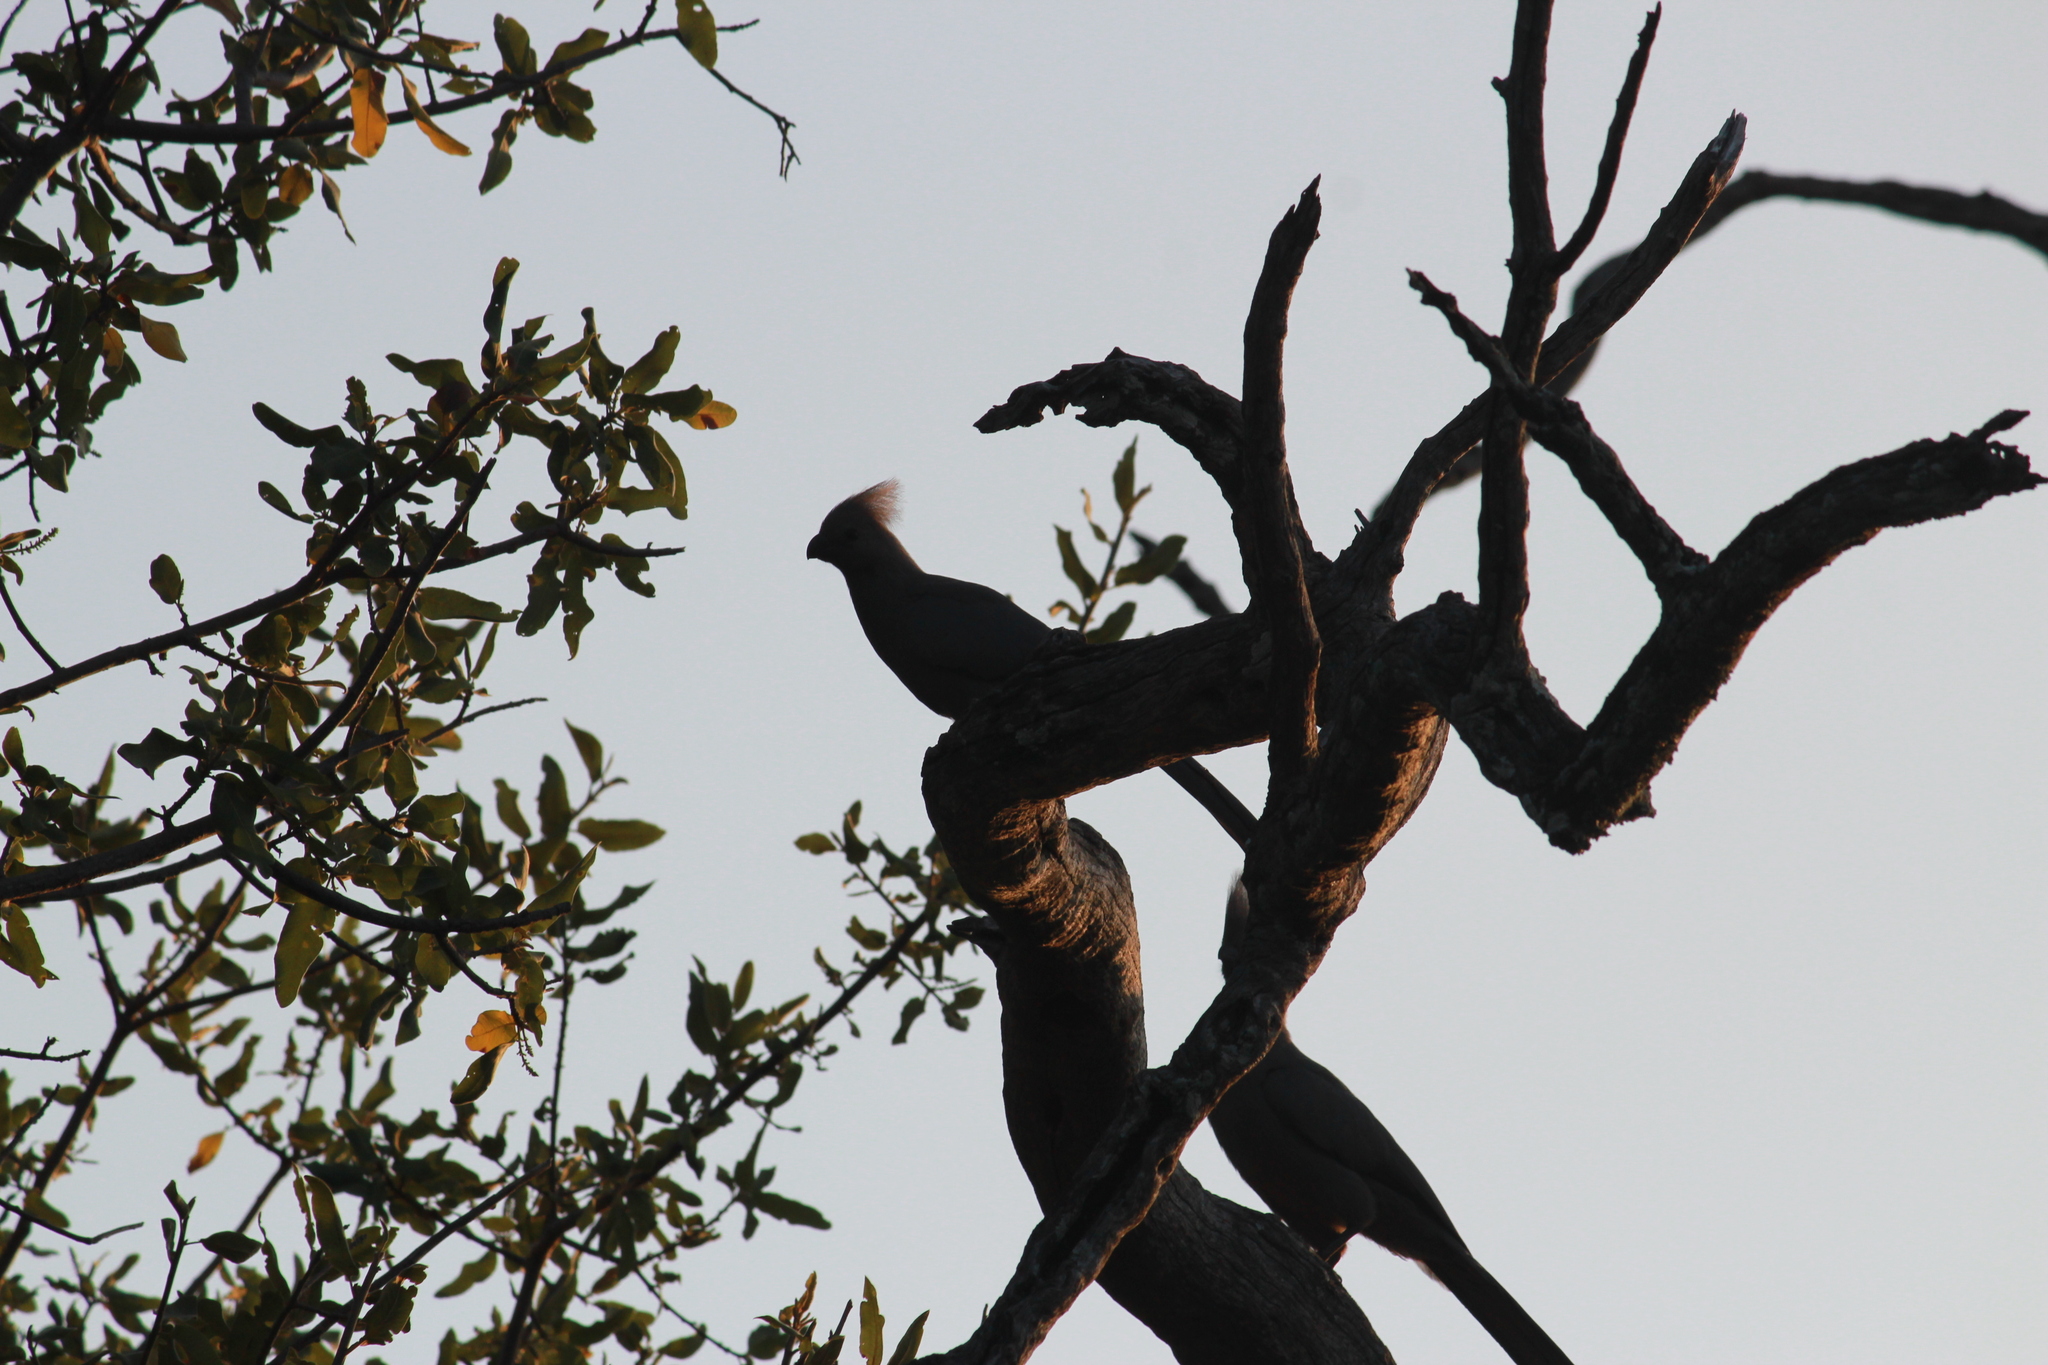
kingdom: Animalia
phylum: Chordata
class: Aves
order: Musophagiformes
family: Musophagidae
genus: Corythaixoides
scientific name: Corythaixoides concolor
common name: Grey go-away-bird
